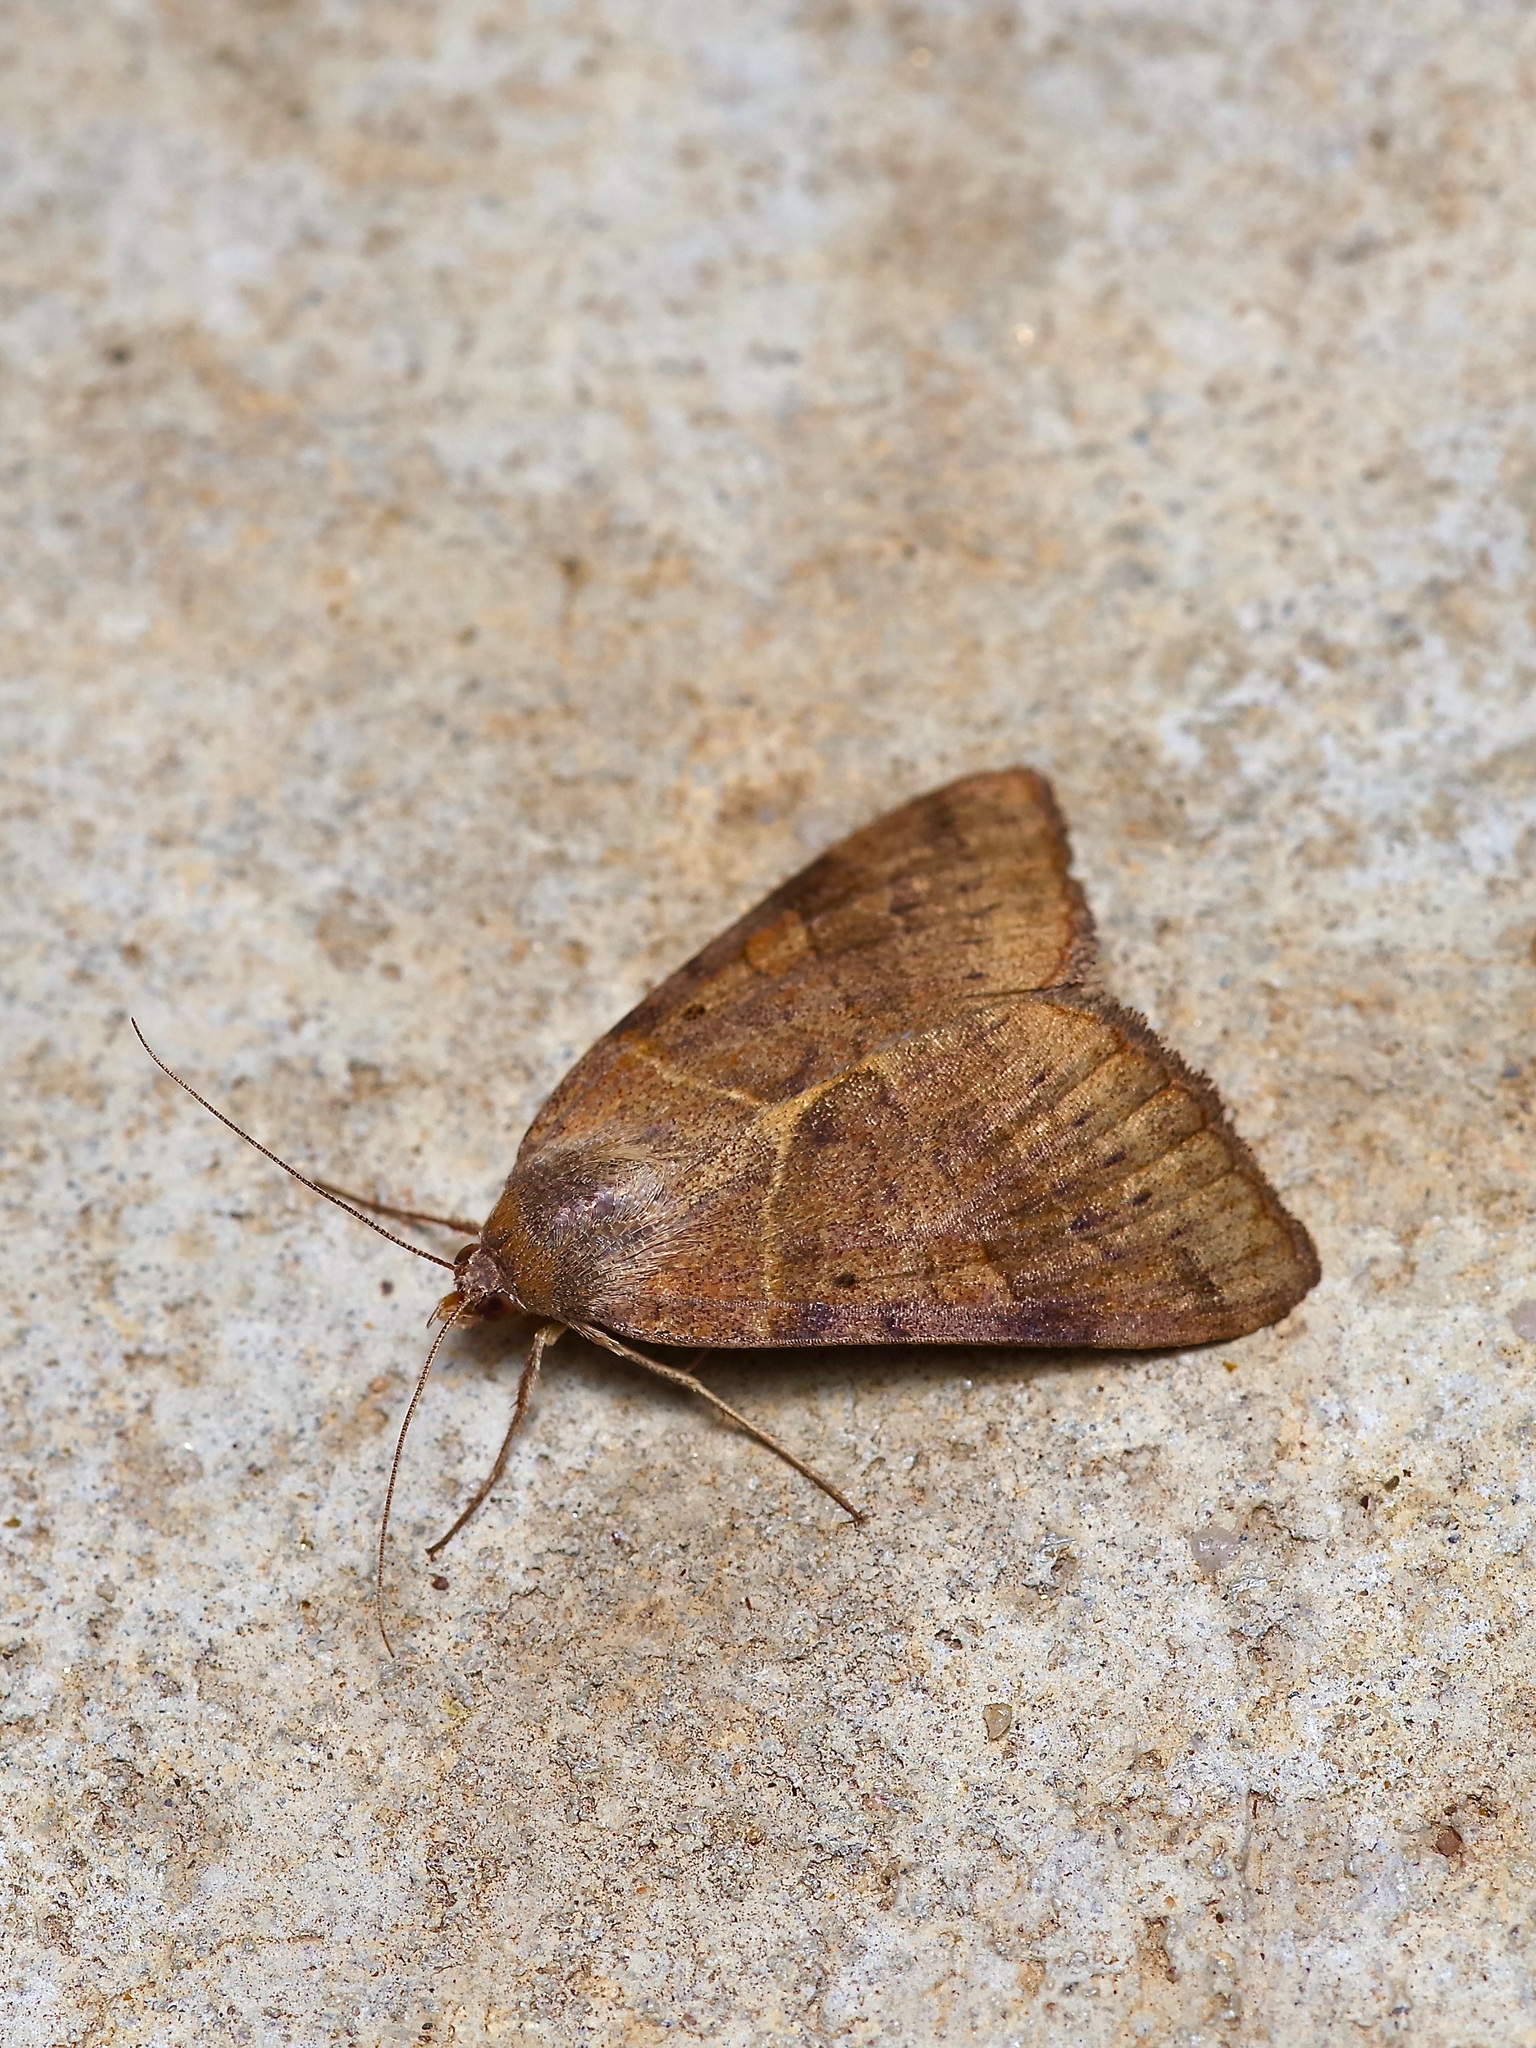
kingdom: Animalia
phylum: Arthropoda
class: Insecta
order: Lepidoptera
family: Erebidae
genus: Caenurgina
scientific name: Caenurgina erechtea
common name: Forage looper moth
